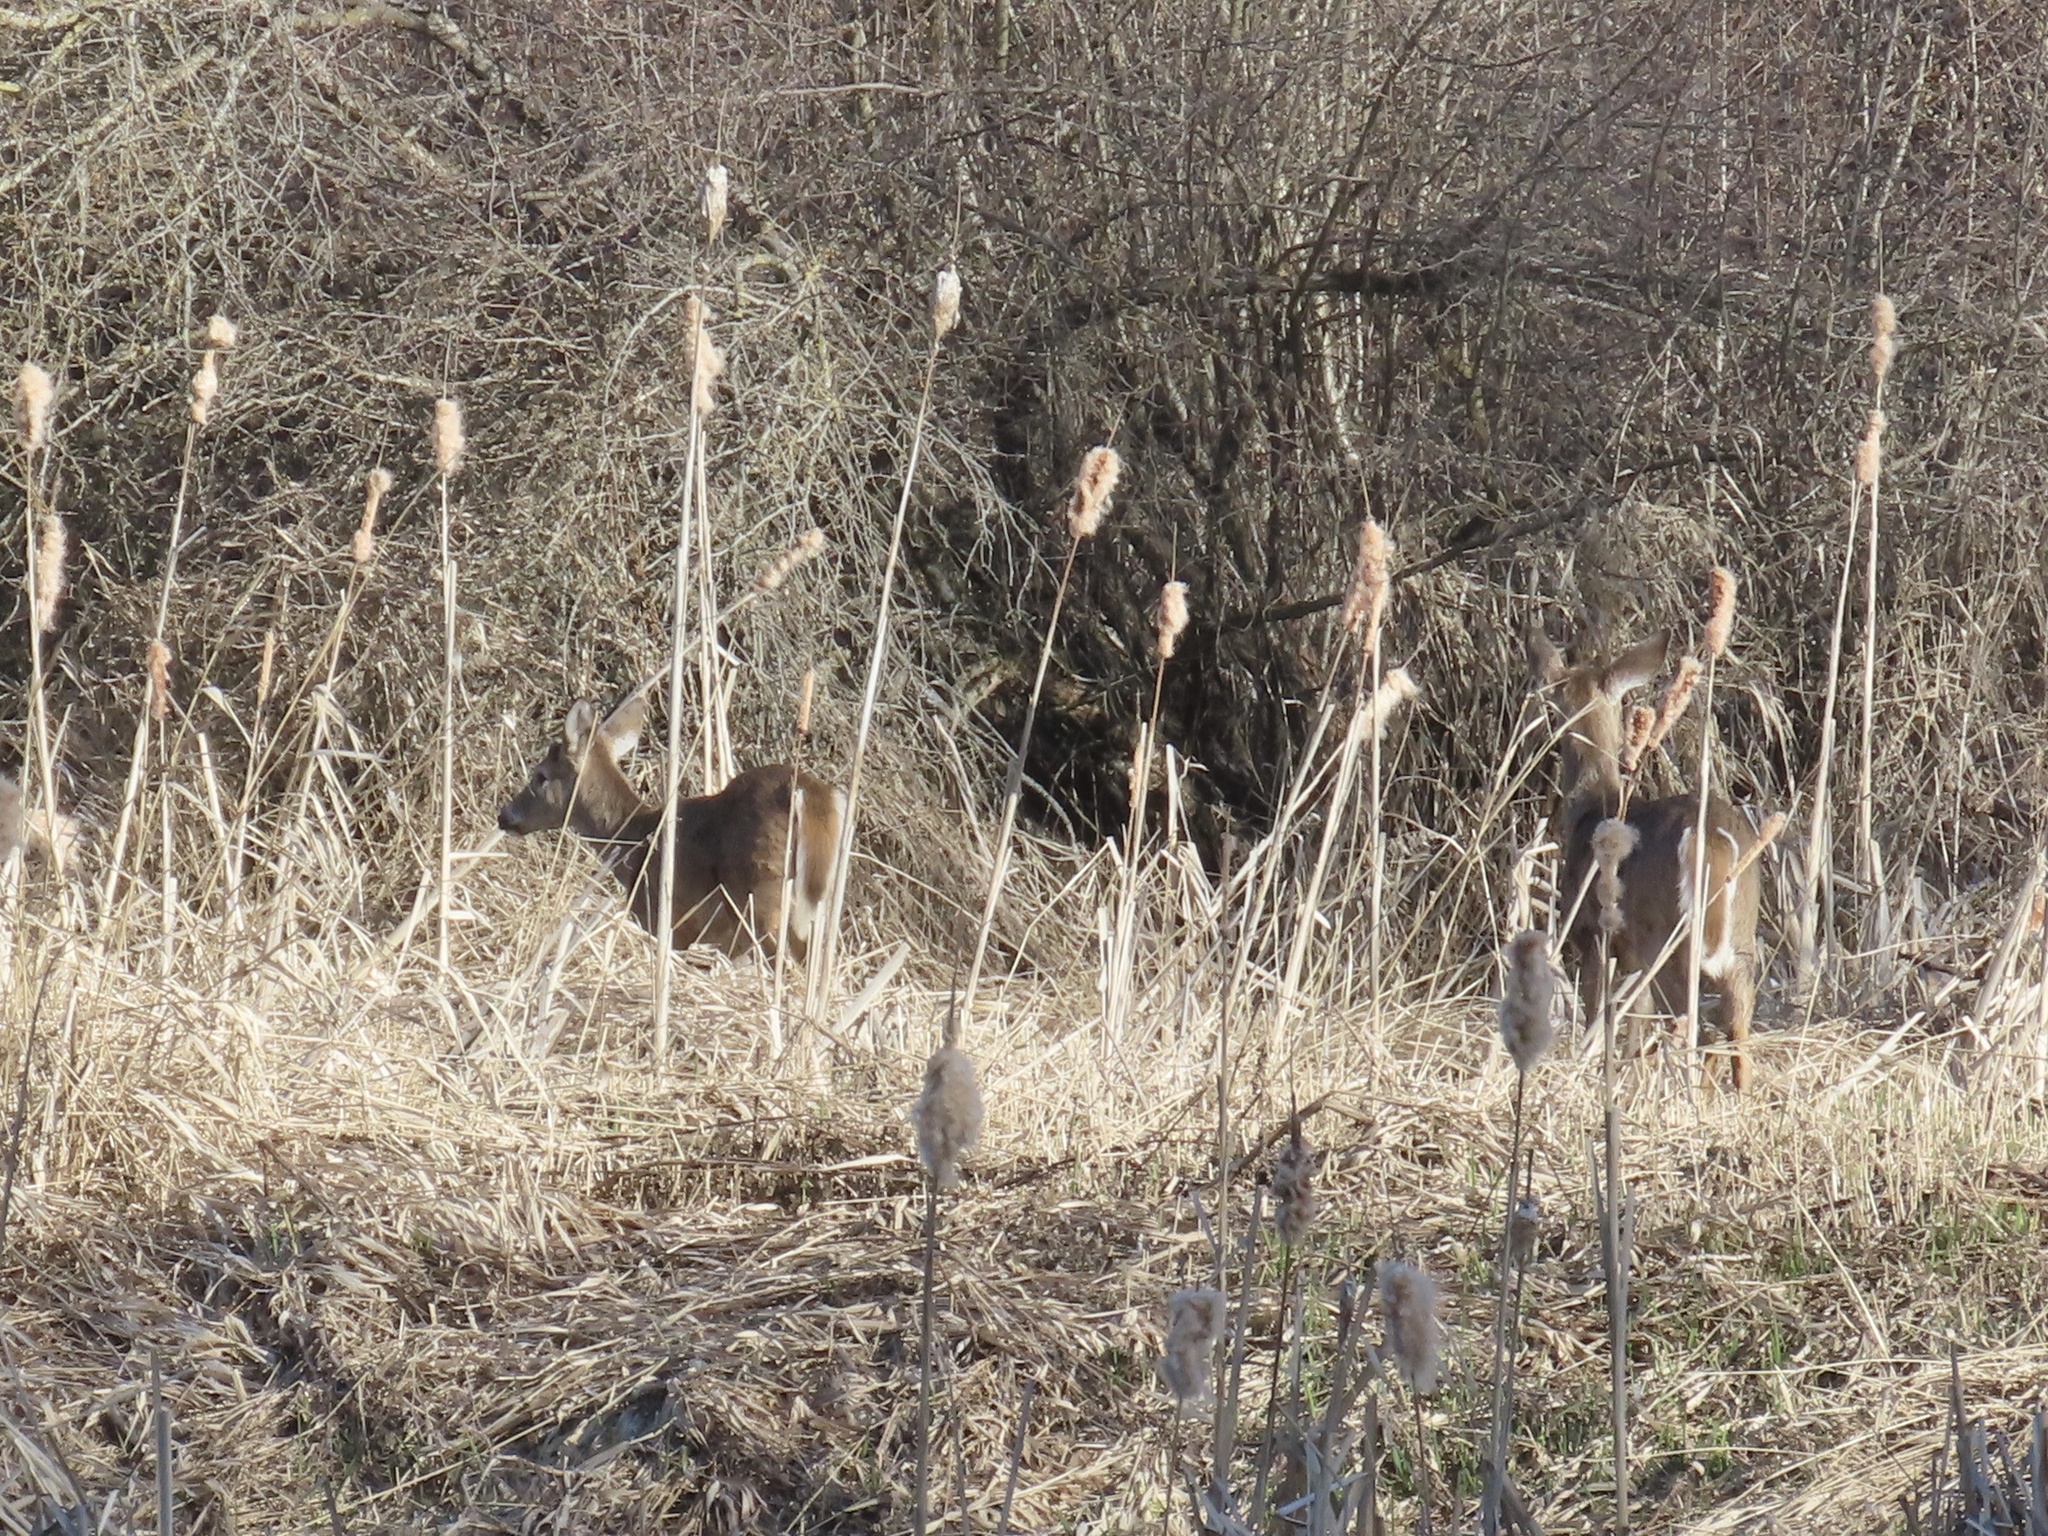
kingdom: Animalia
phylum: Chordata
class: Mammalia
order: Artiodactyla
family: Cervidae
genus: Odocoileus
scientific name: Odocoileus virginianus
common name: White-tailed deer
